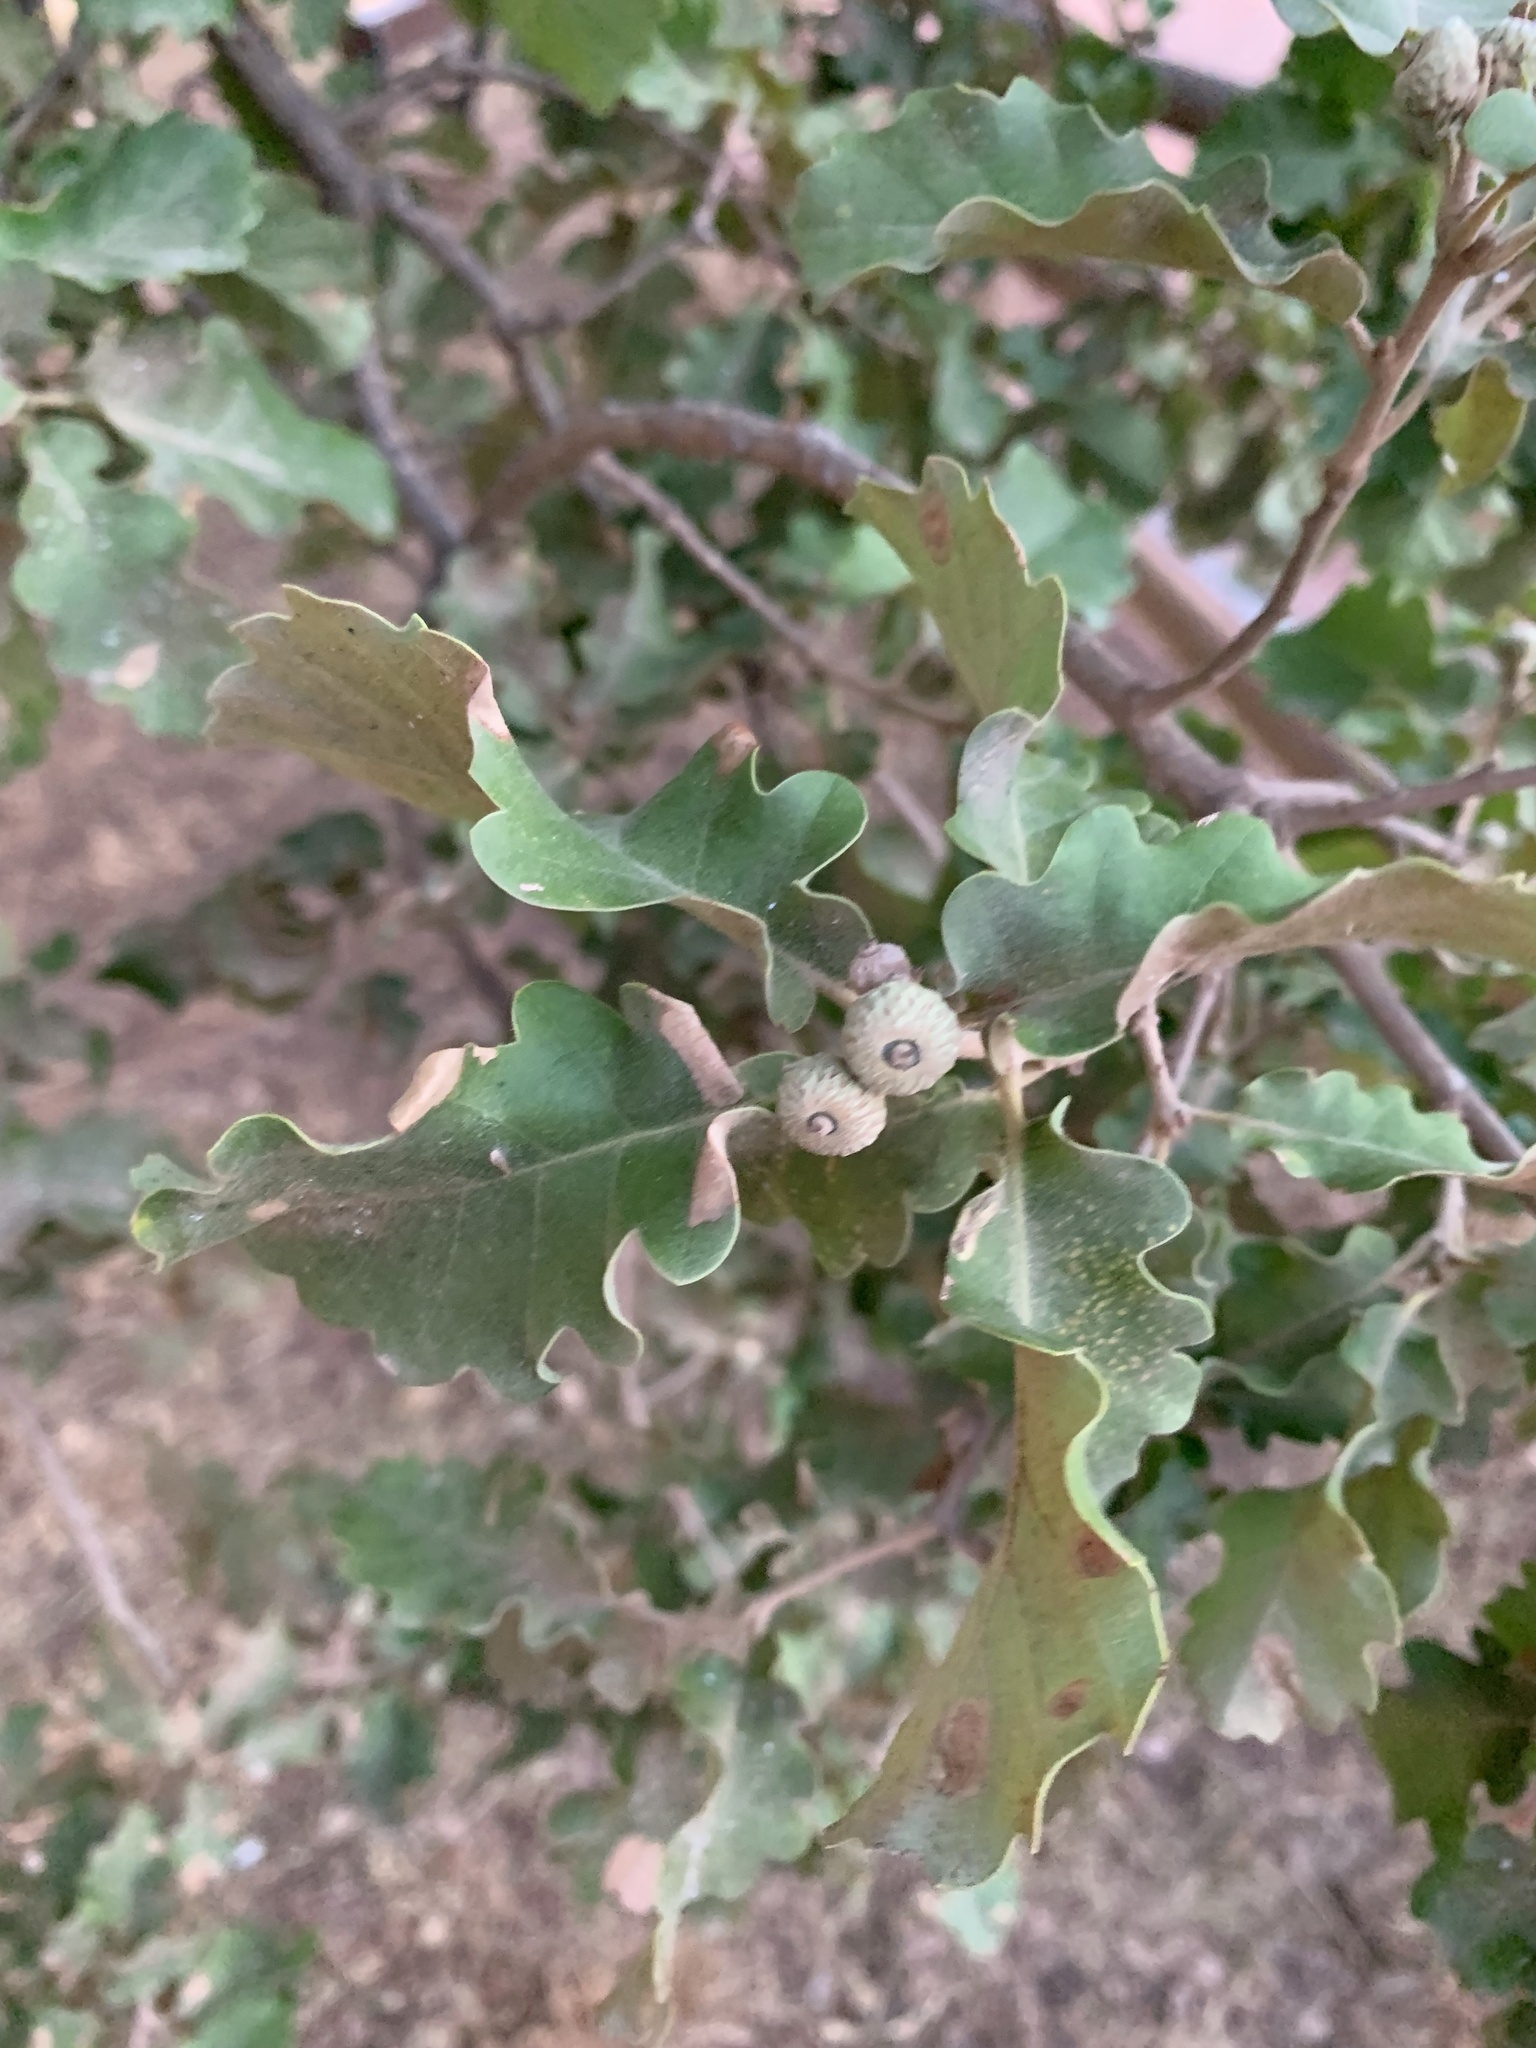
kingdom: Plantae
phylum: Tracheophyta
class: Magnoliopsida
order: Fagales
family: Fagaceae
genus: Quercus
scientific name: Quercus pubescens
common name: Downy oak
